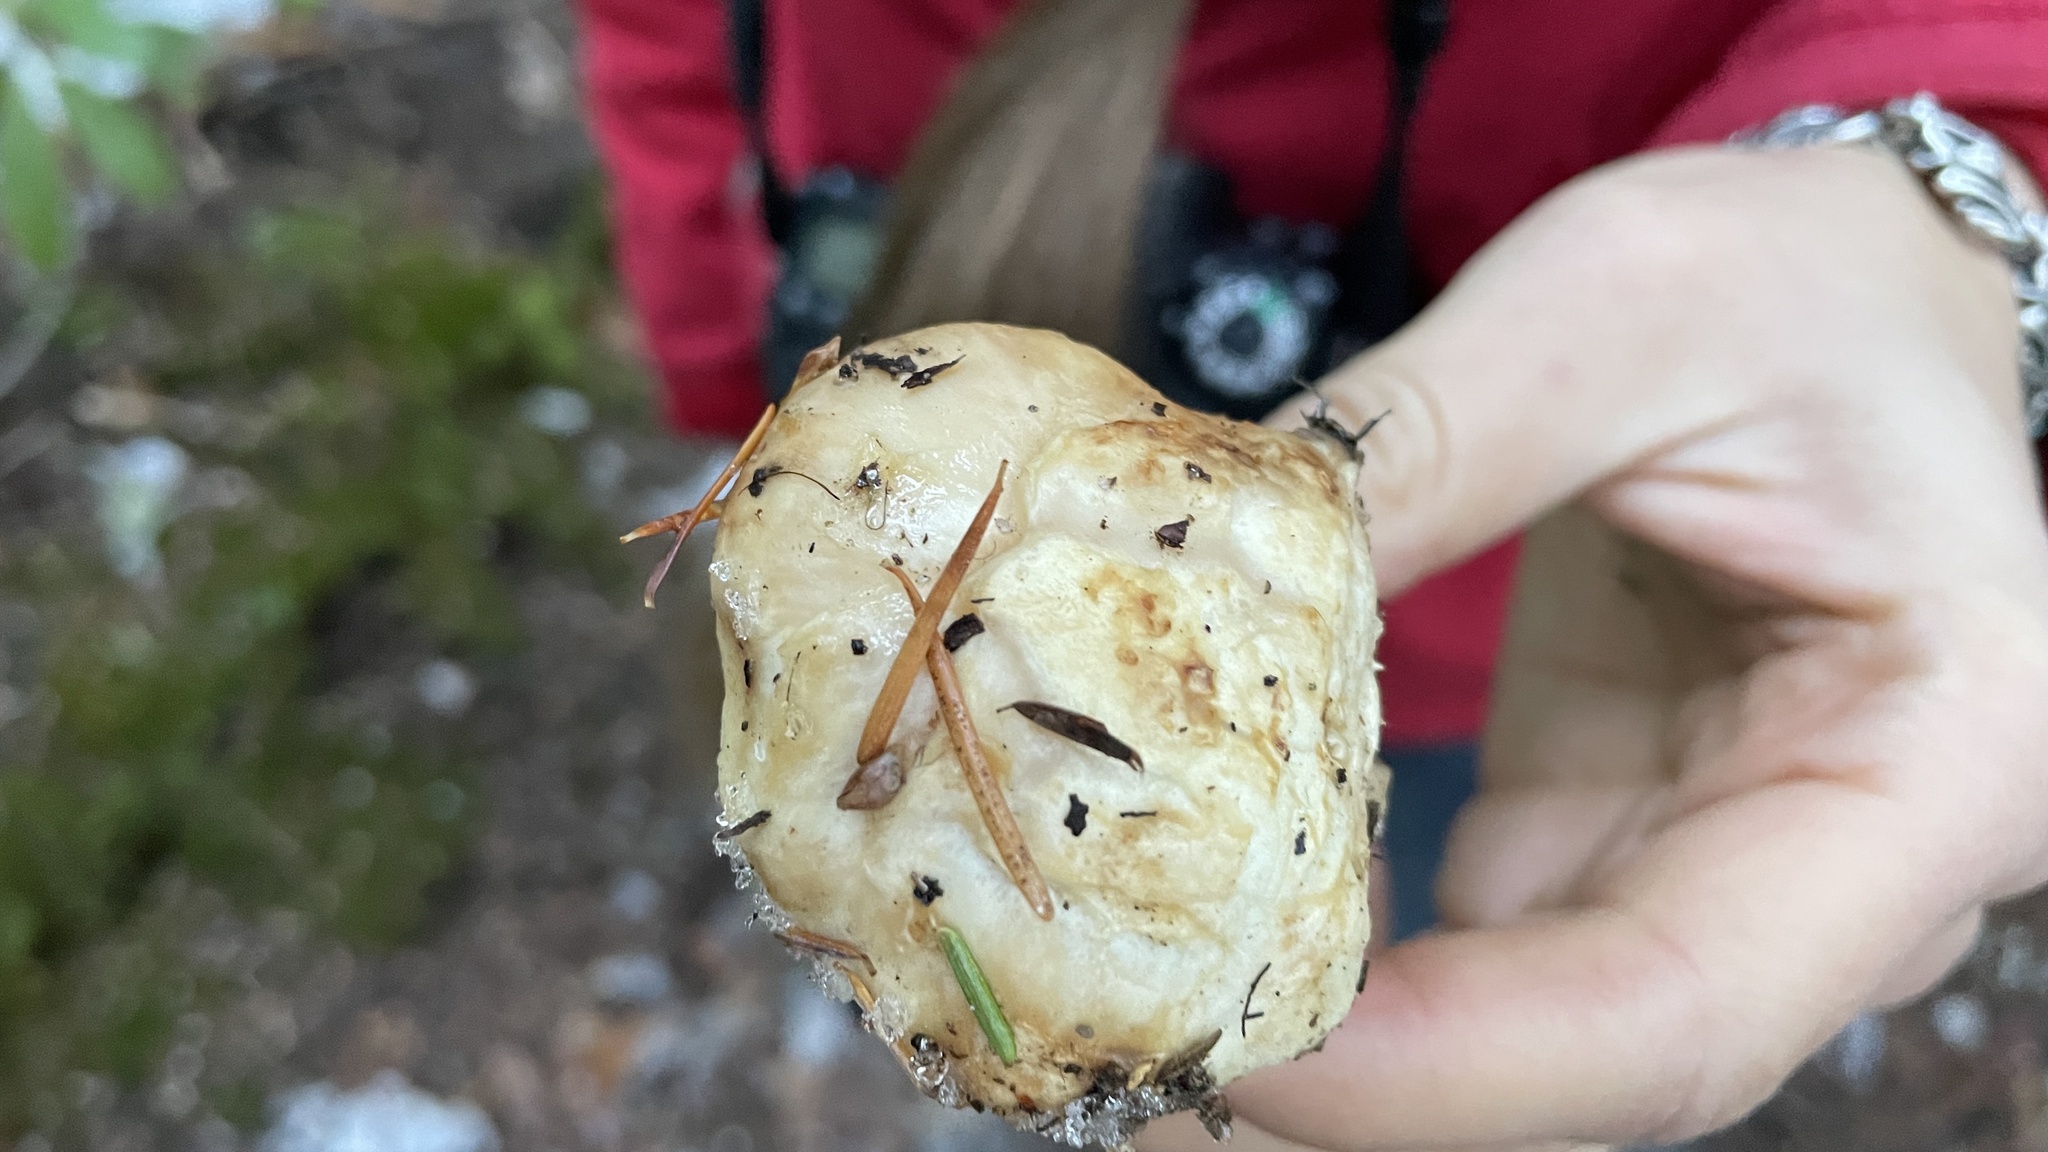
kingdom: Fungi
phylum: Basidiomycota
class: Agaricomycetes
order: Agaricales
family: Tricholomataceae
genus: Tricholoma
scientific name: Tricholoma murrillianum
